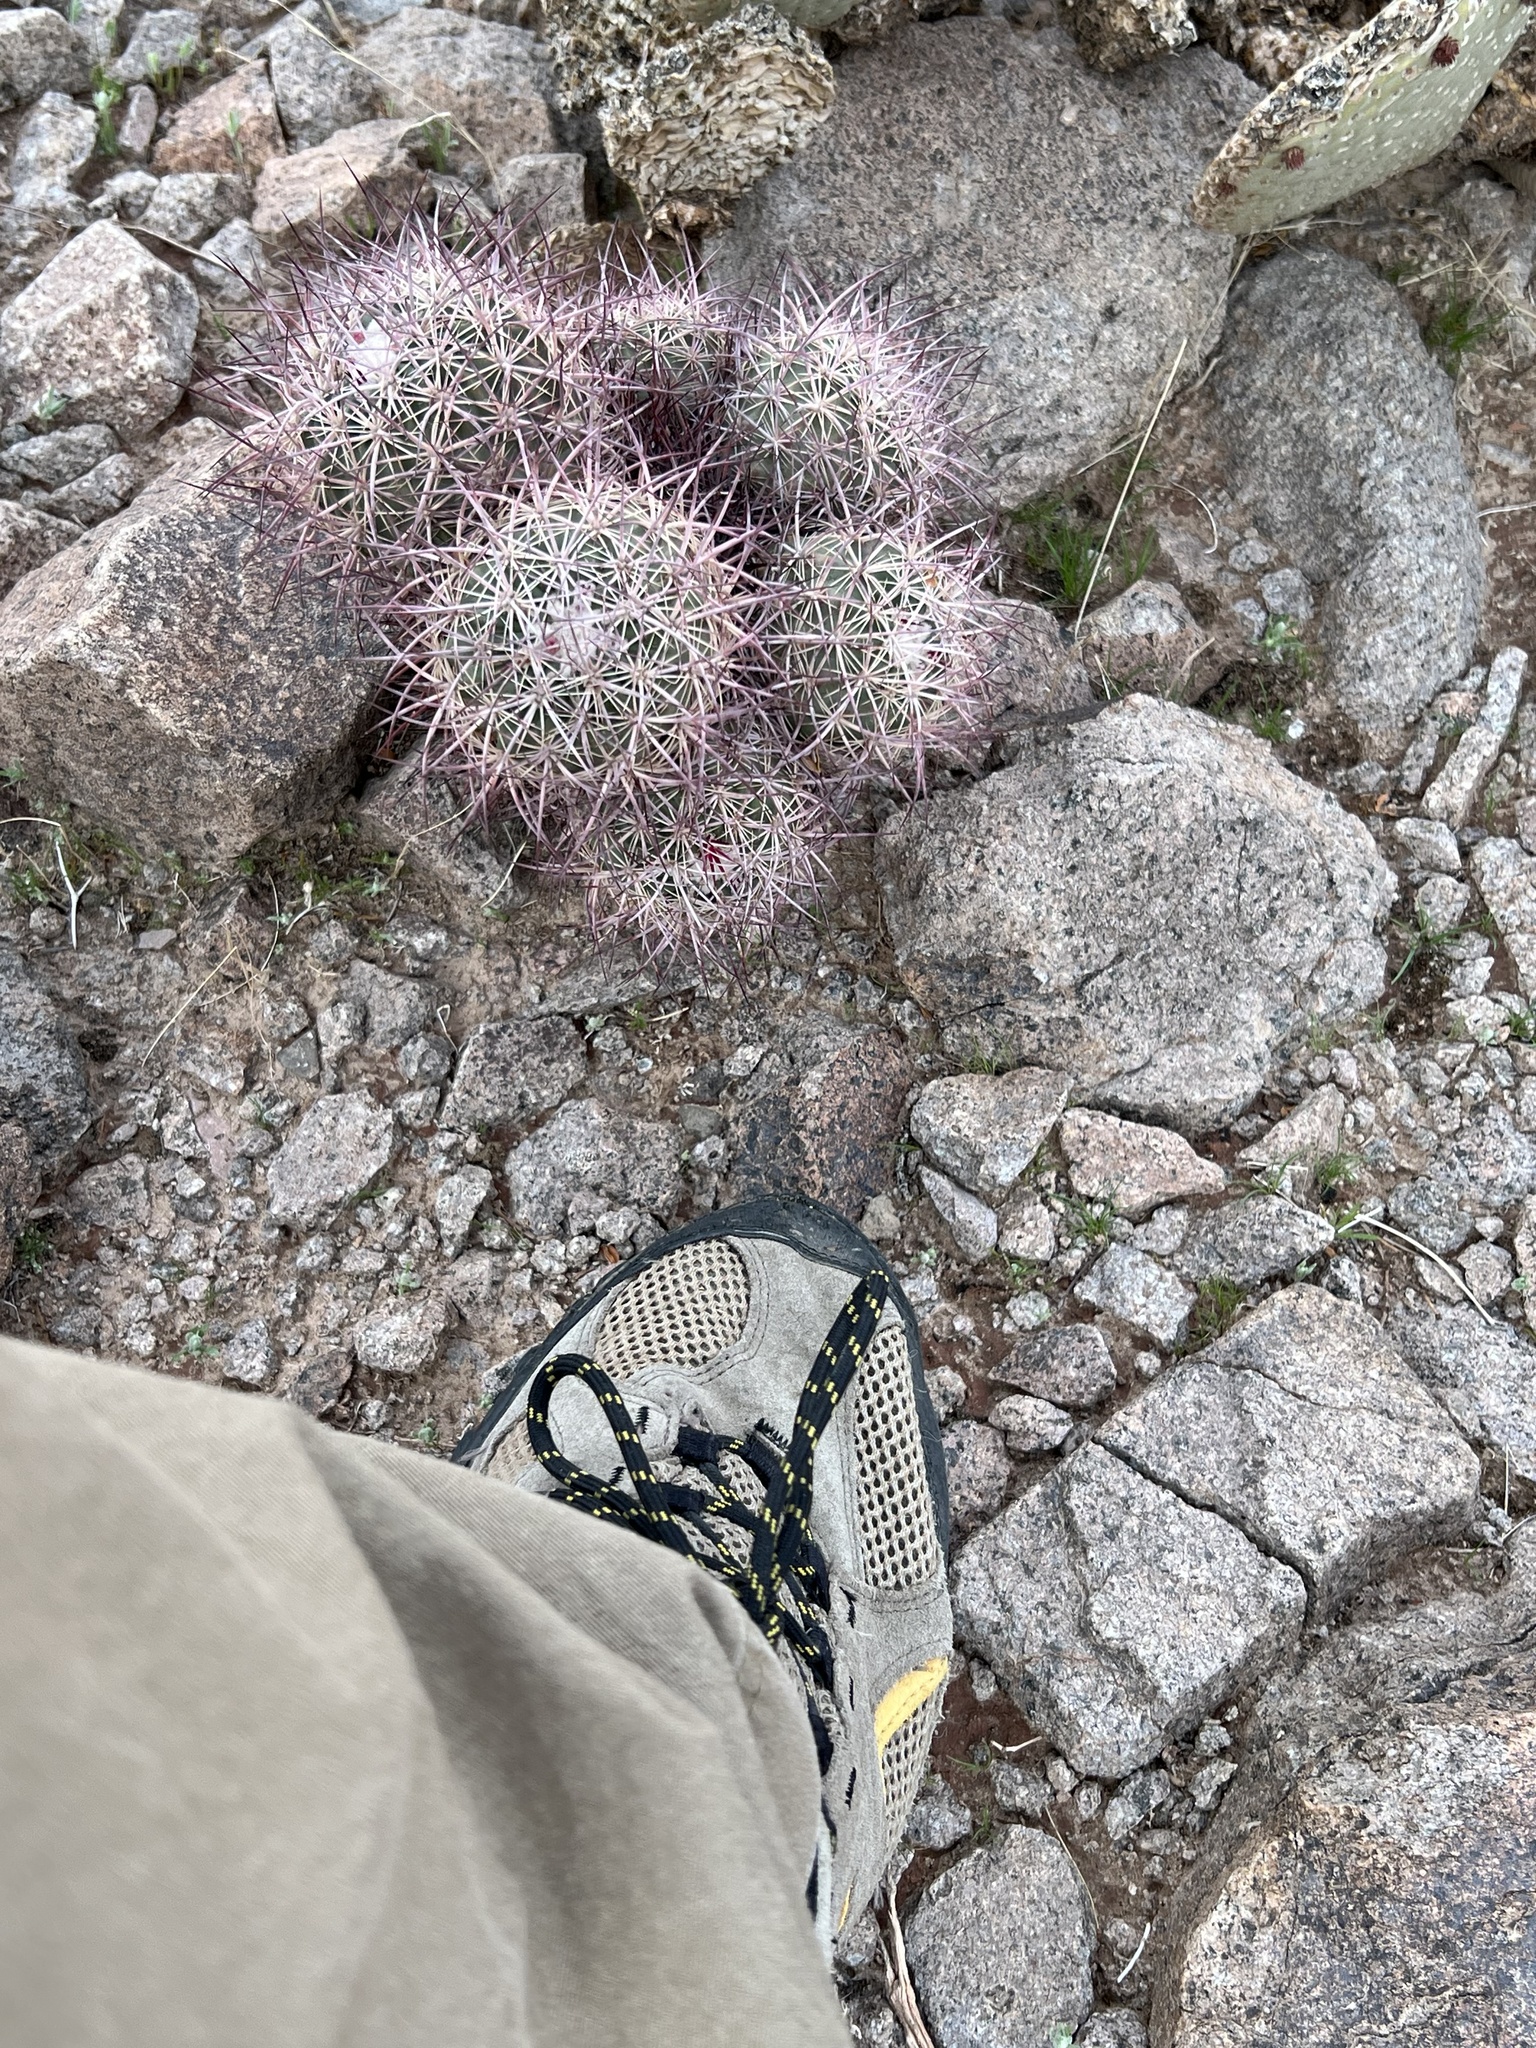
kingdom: Plantae
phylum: Tracheophyta
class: Magnoliopsida
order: Caryophyllales
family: Cactaceae
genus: Sclerocactus
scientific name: Sclerocactus johnsonii
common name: Eight-spine fishhook cactus
